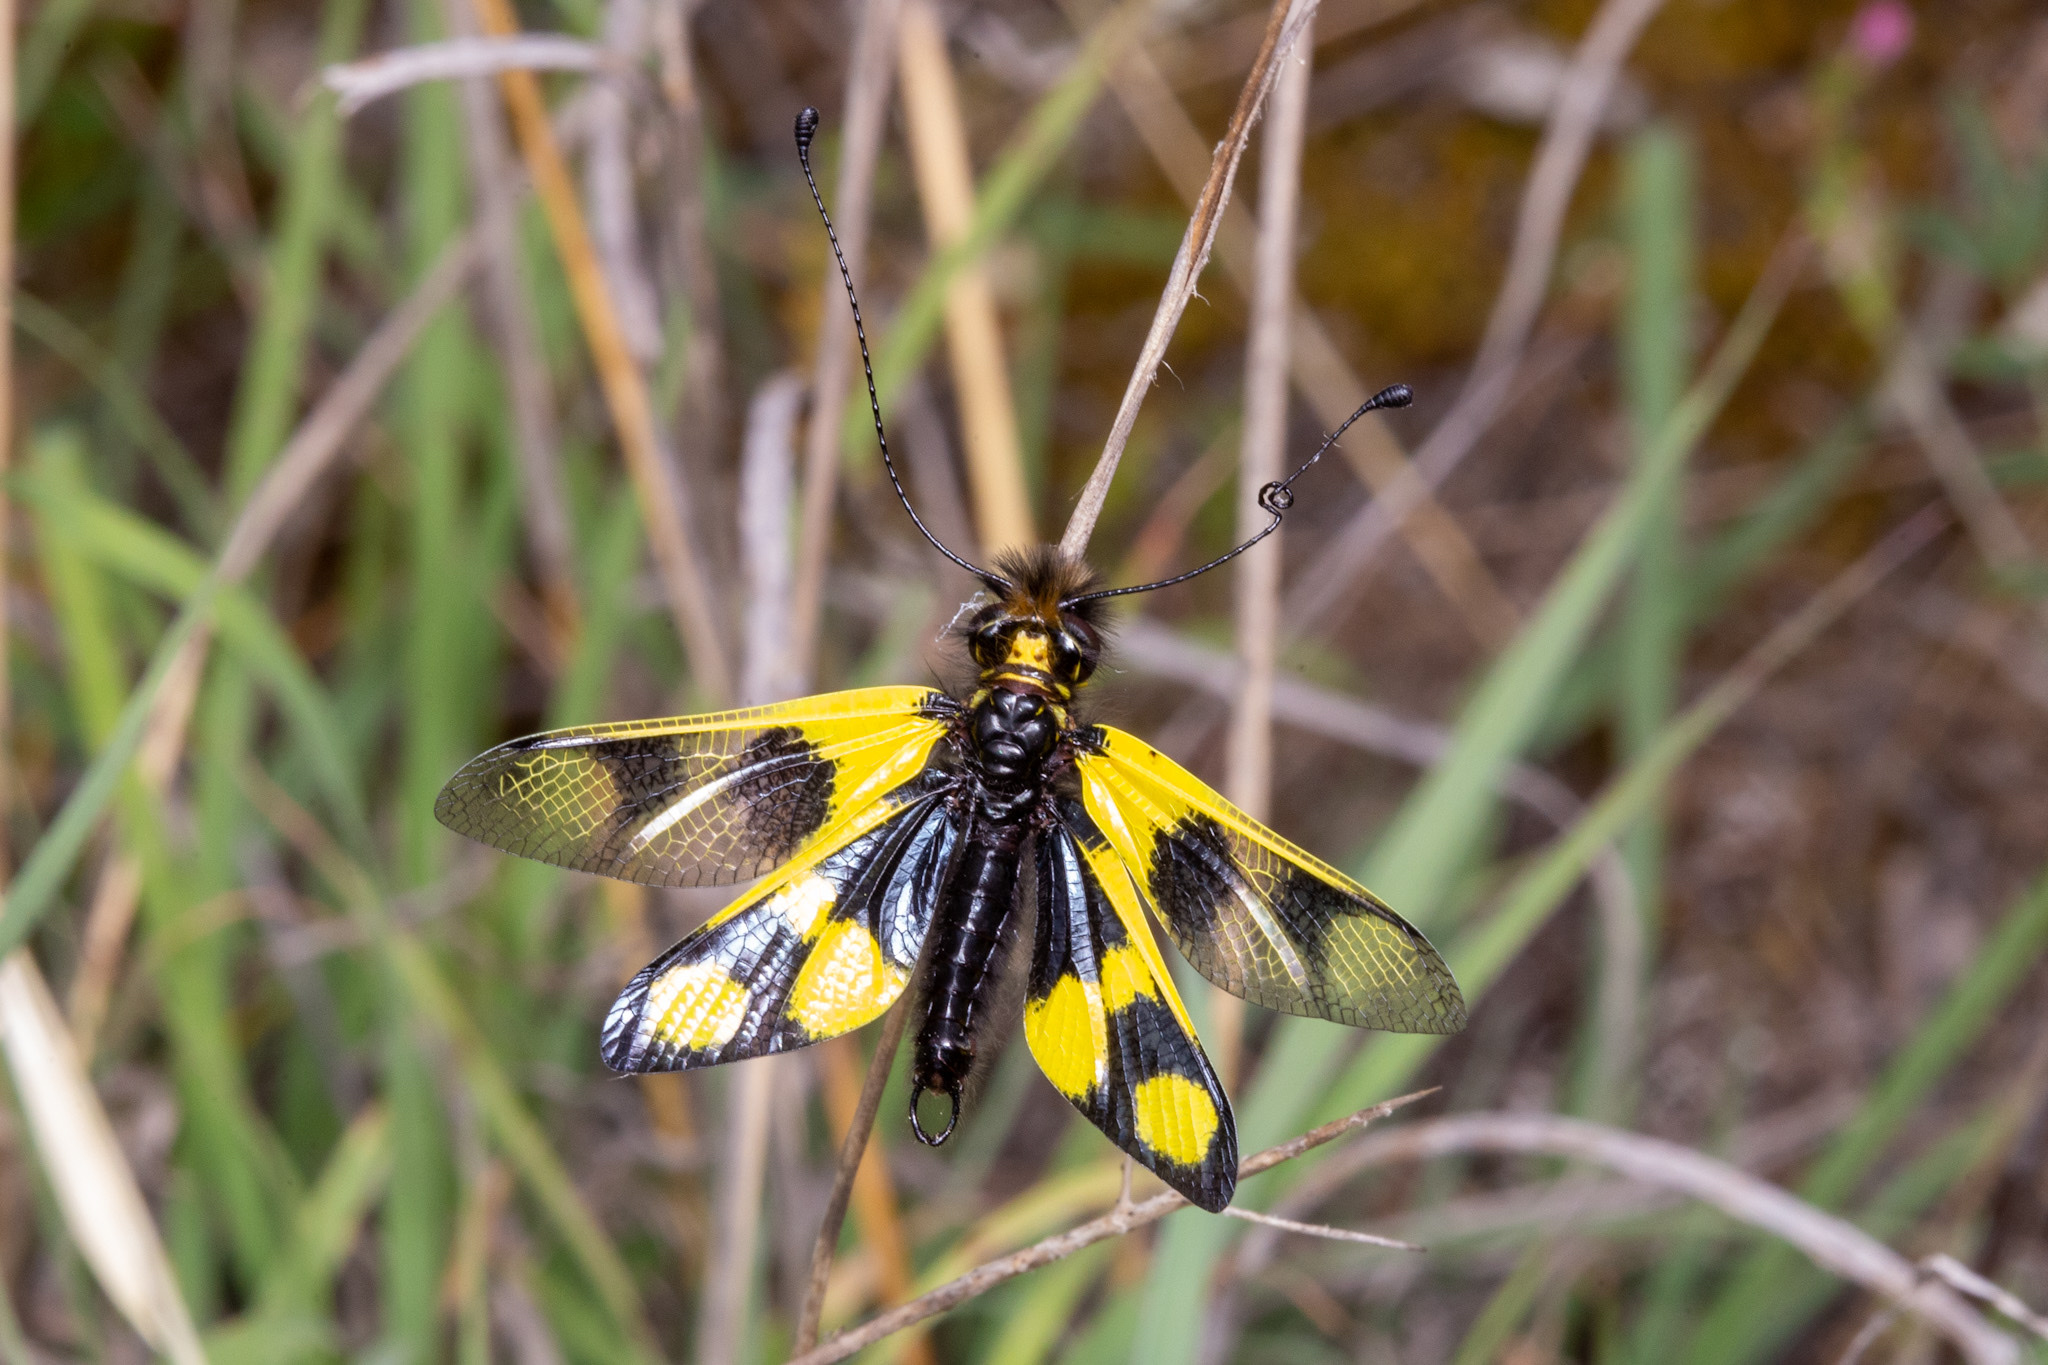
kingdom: Animalia
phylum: Arthropoda
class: Insecta
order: Neuroptera
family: Ascalaphidae
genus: Libelloides
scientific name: Libelloides macaronius
